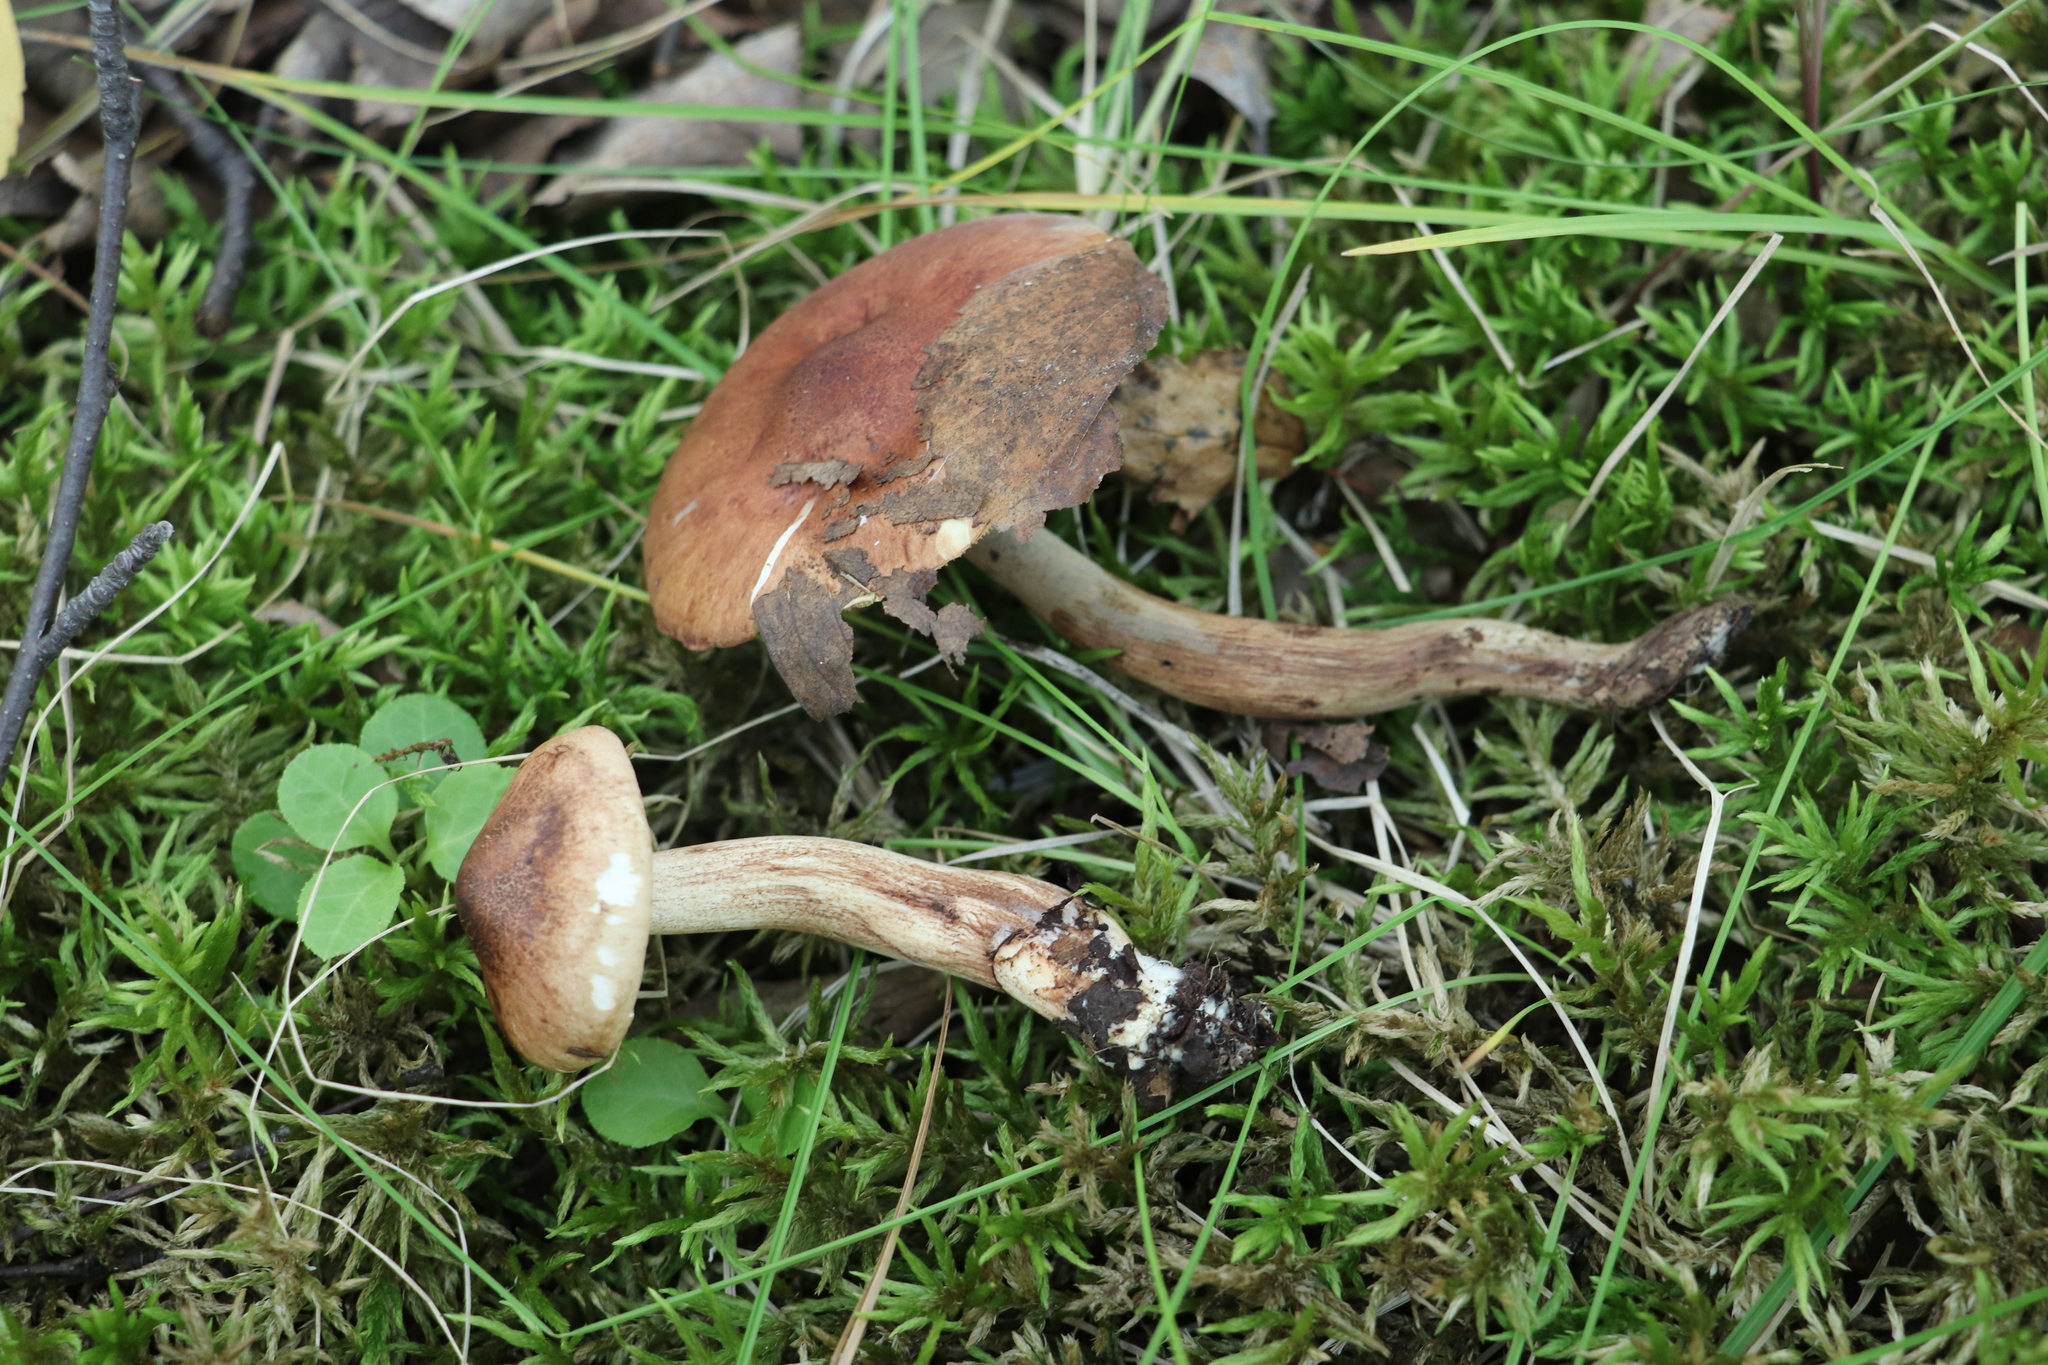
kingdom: Fungi
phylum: Basidiomycota
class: Agaricomycetes
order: Agaricales
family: Tricholomataceae
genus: Tricholoma
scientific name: Tricholoma fulvum
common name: Birch knight
